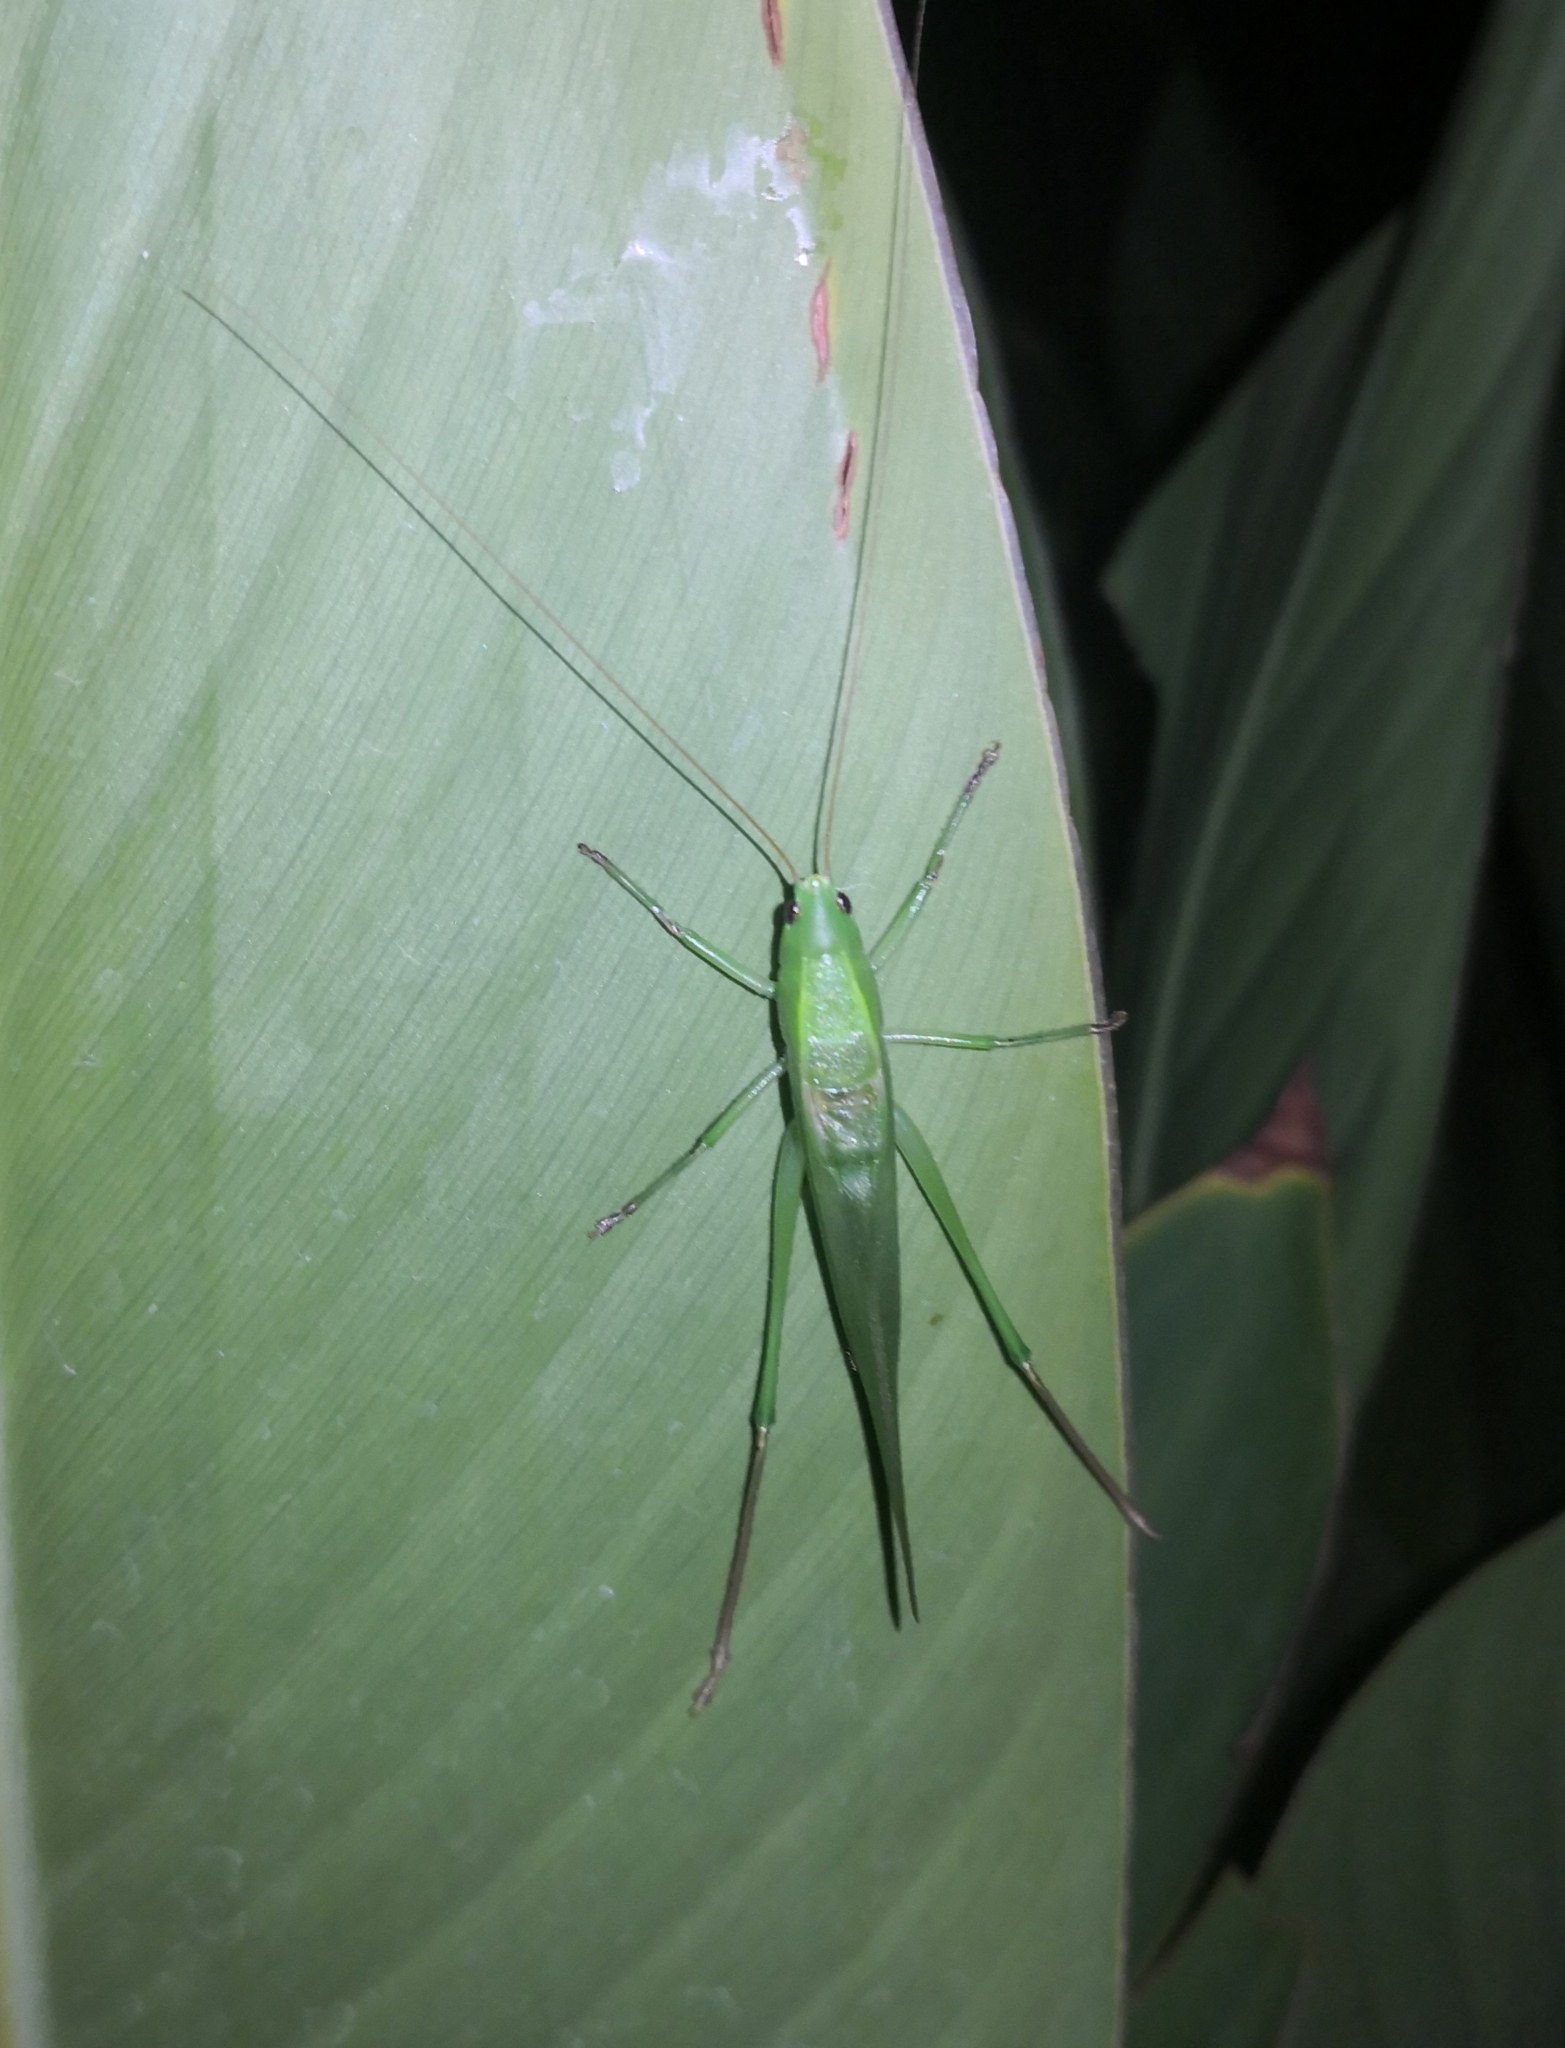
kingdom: Animalia
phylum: Arthropoda
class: Insecta
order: Orthoptera
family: Tettigoniidae
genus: Ruspolia
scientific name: Ruspolia nitidula
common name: Large conehead
